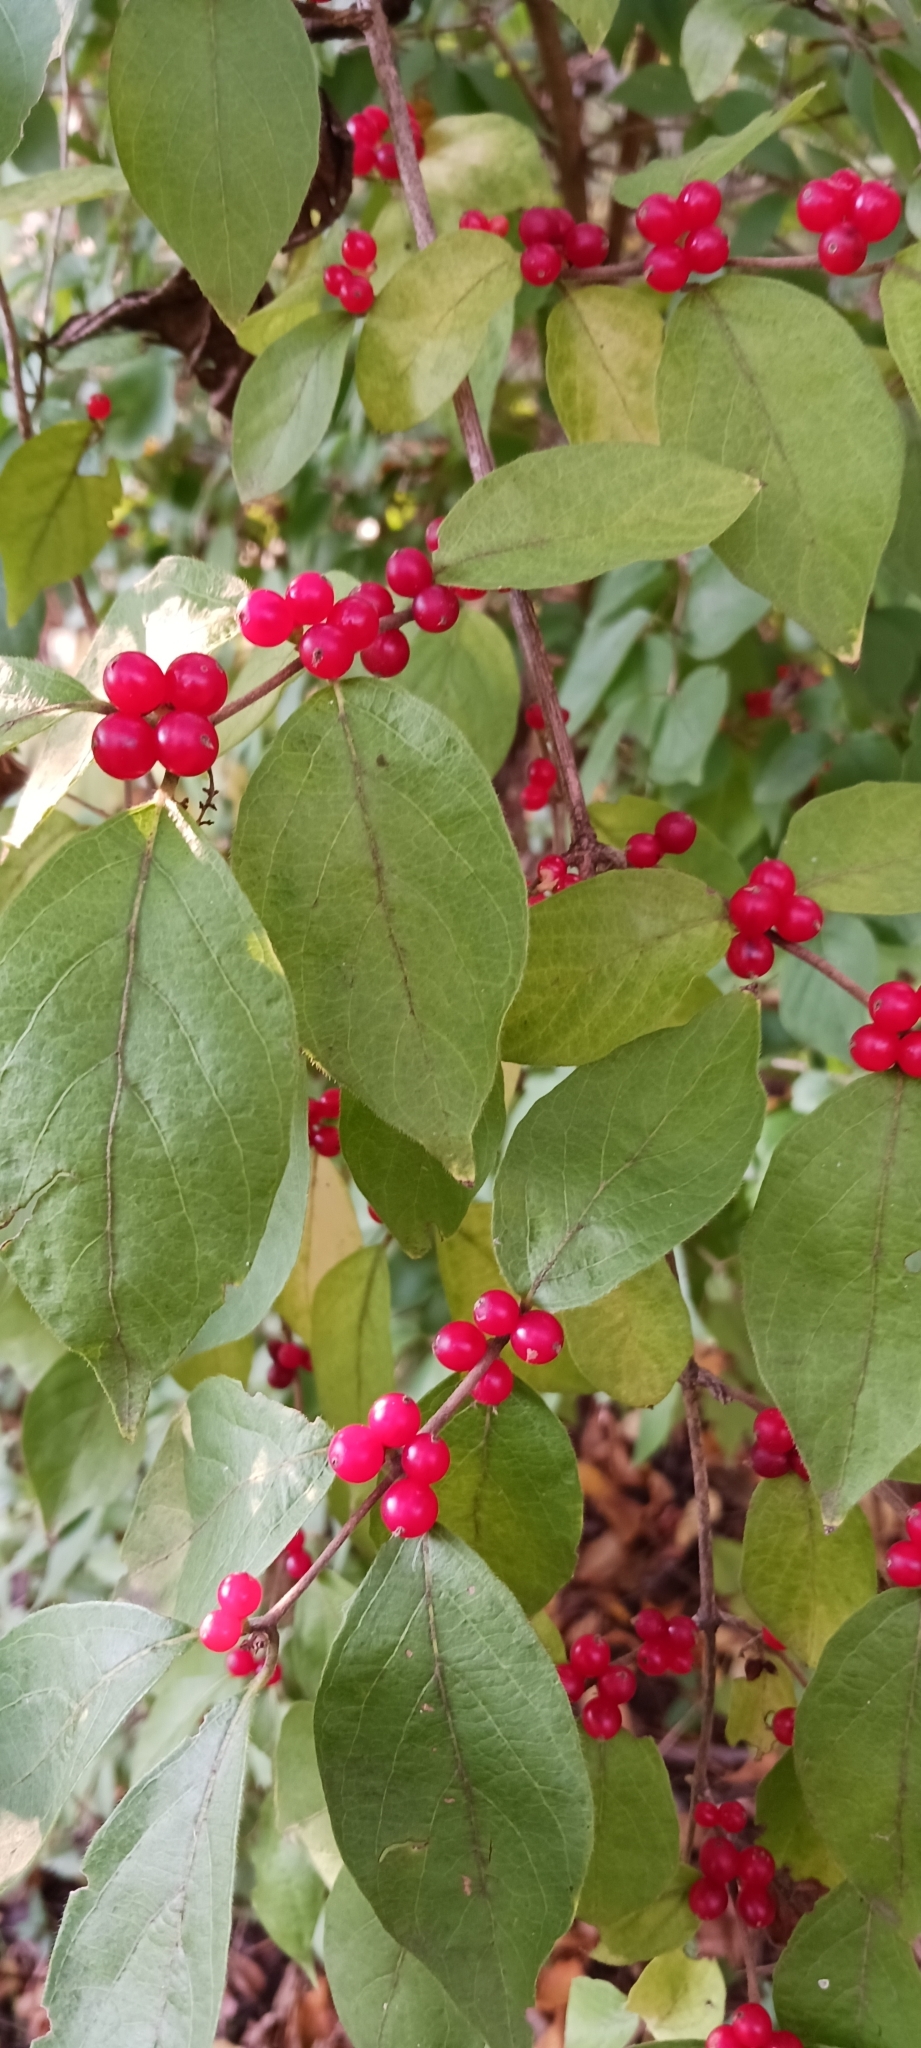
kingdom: Plantae
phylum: Tracheophyta
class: Magnoliopsida
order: Dipsacales
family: Caprifoliaceae
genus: Lonicera
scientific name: Lonicera maackii
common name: Amur honeysuckle
